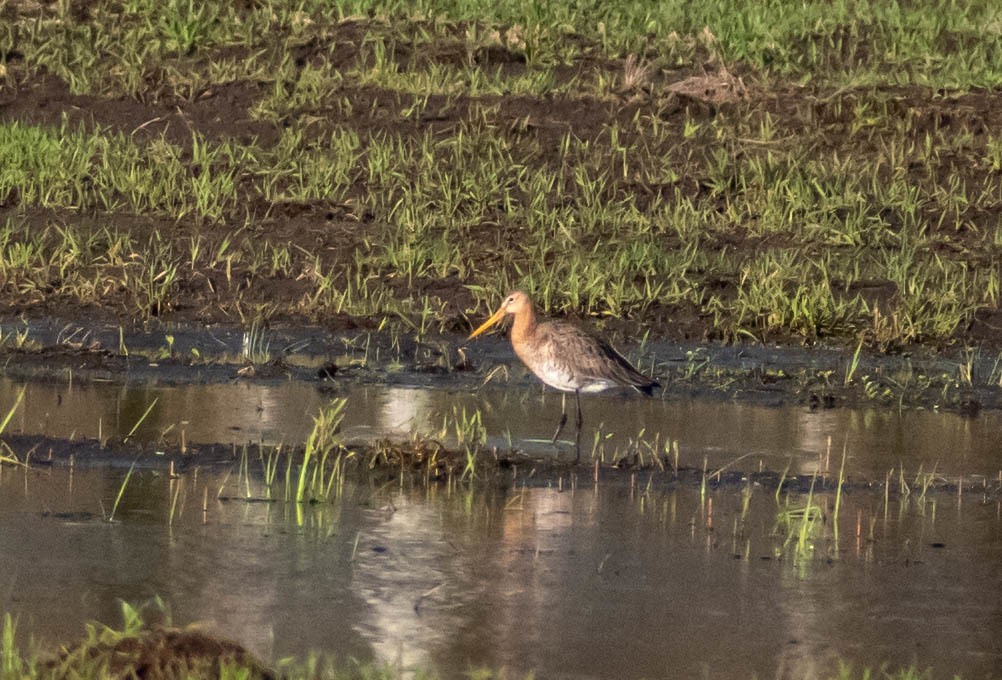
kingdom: Animalia
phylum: Chordata
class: Aves
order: Charadriiformes
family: Scolopacidae
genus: Limosa
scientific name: Limosa limosa
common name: Black-tailed godwit
